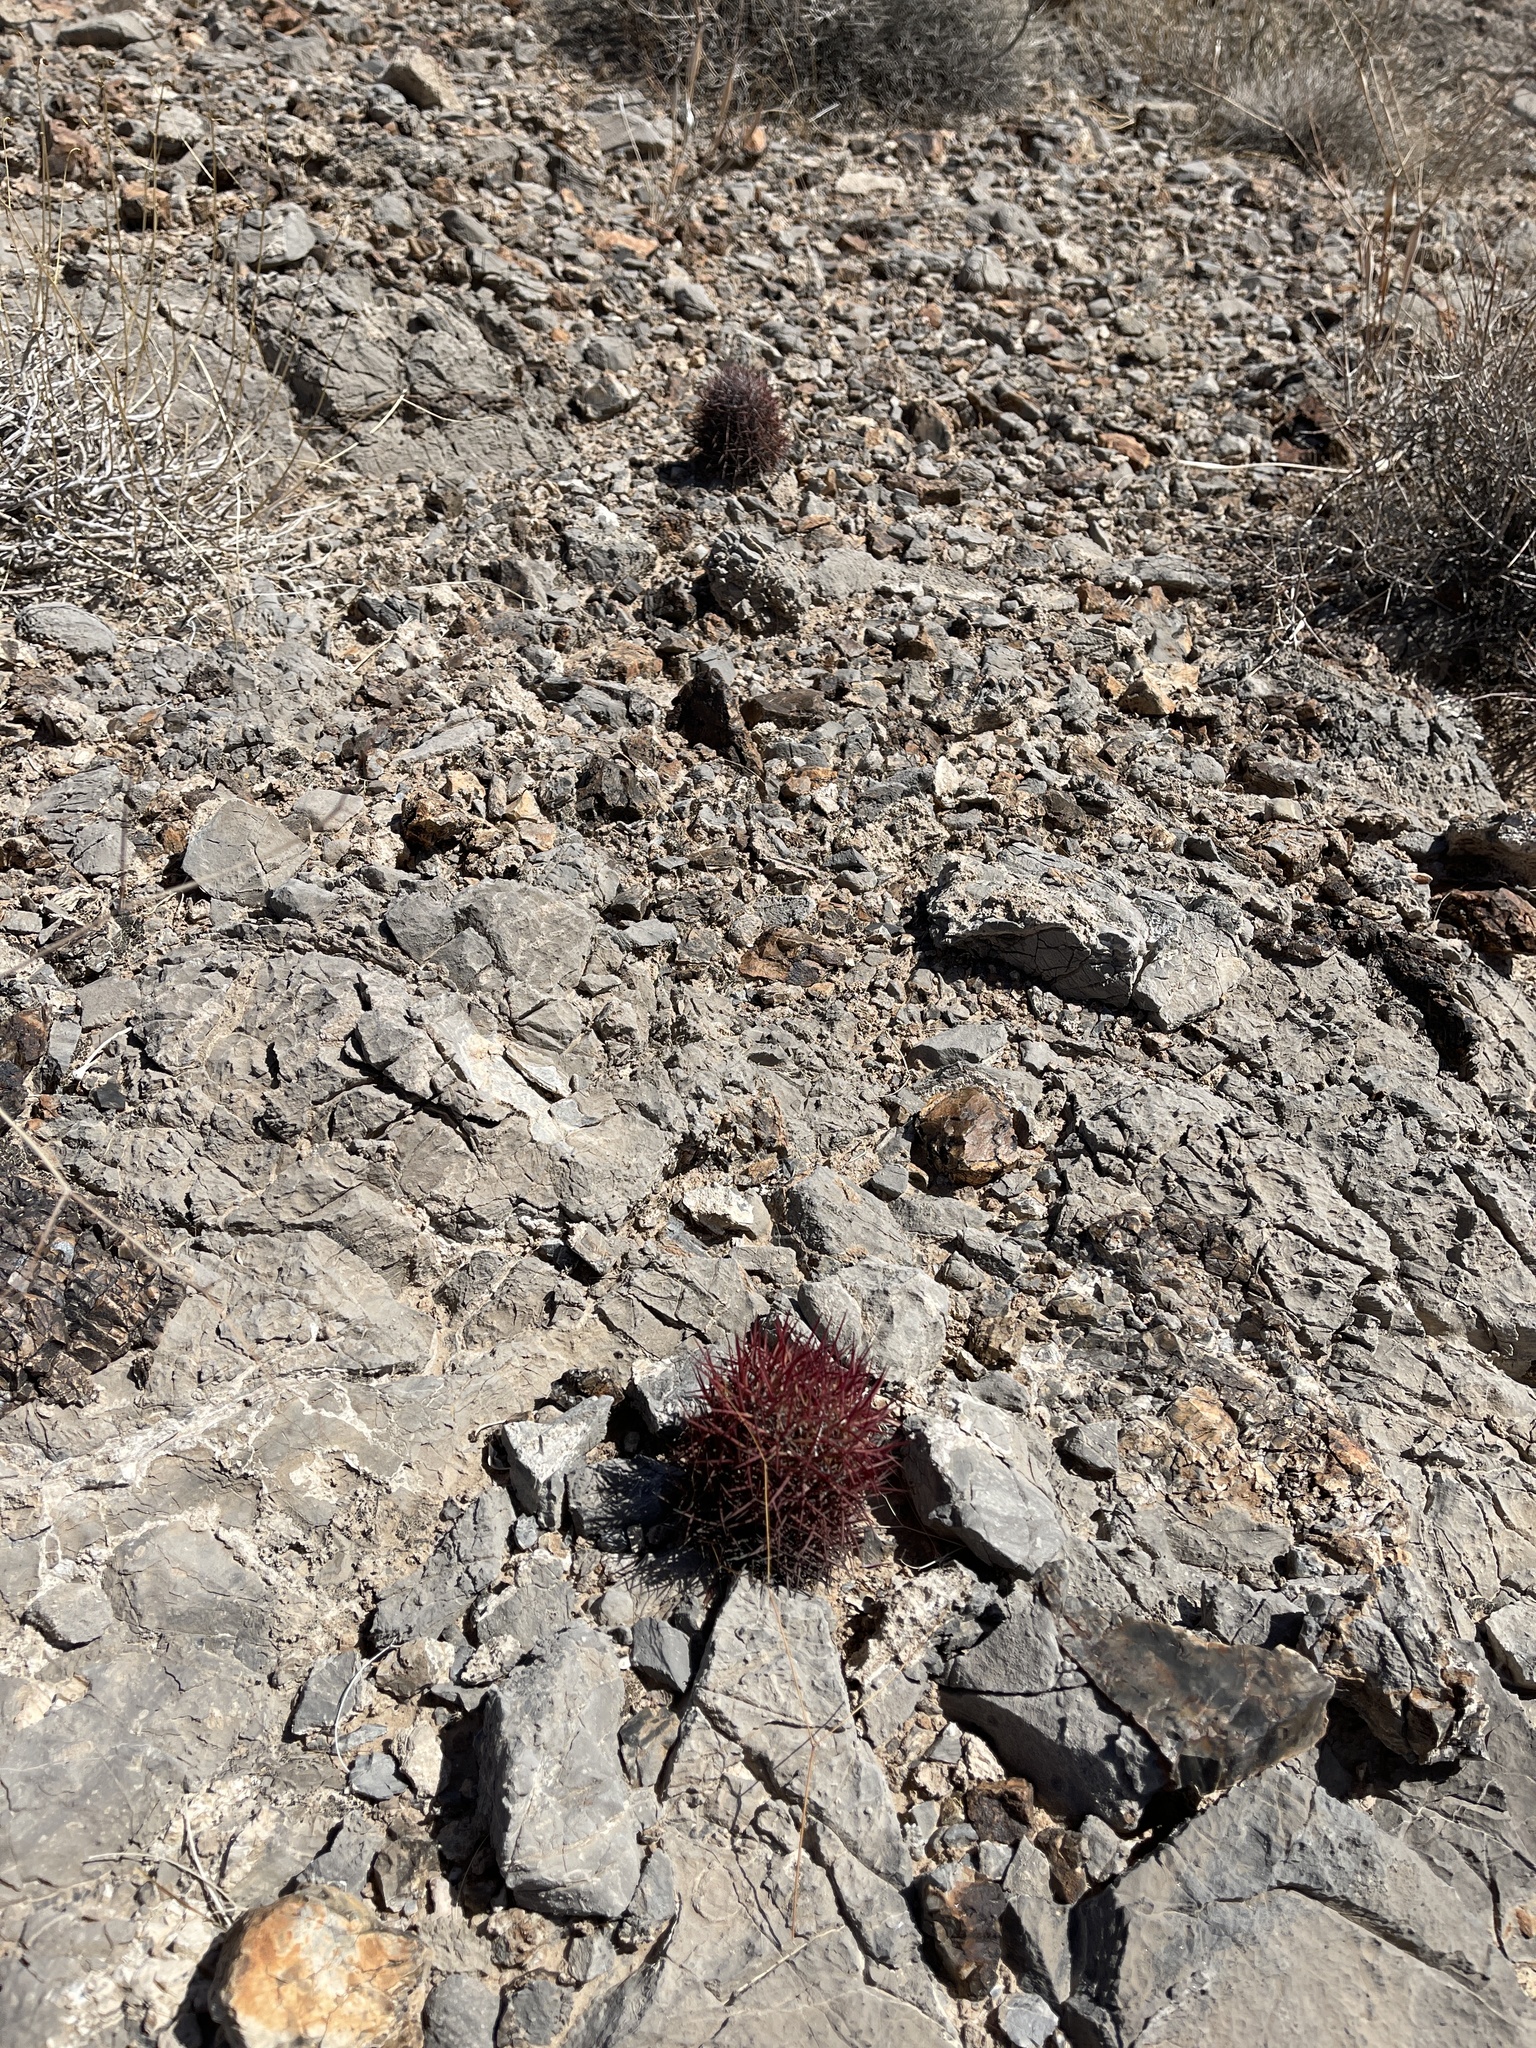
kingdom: Plantae
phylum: Tracheophyta
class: Magnoliopsida
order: Caryophyllales
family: Cactaceae
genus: Sclerocactus
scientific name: Sclerocactus johnsonii
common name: Eight-spine fishhook cactus
